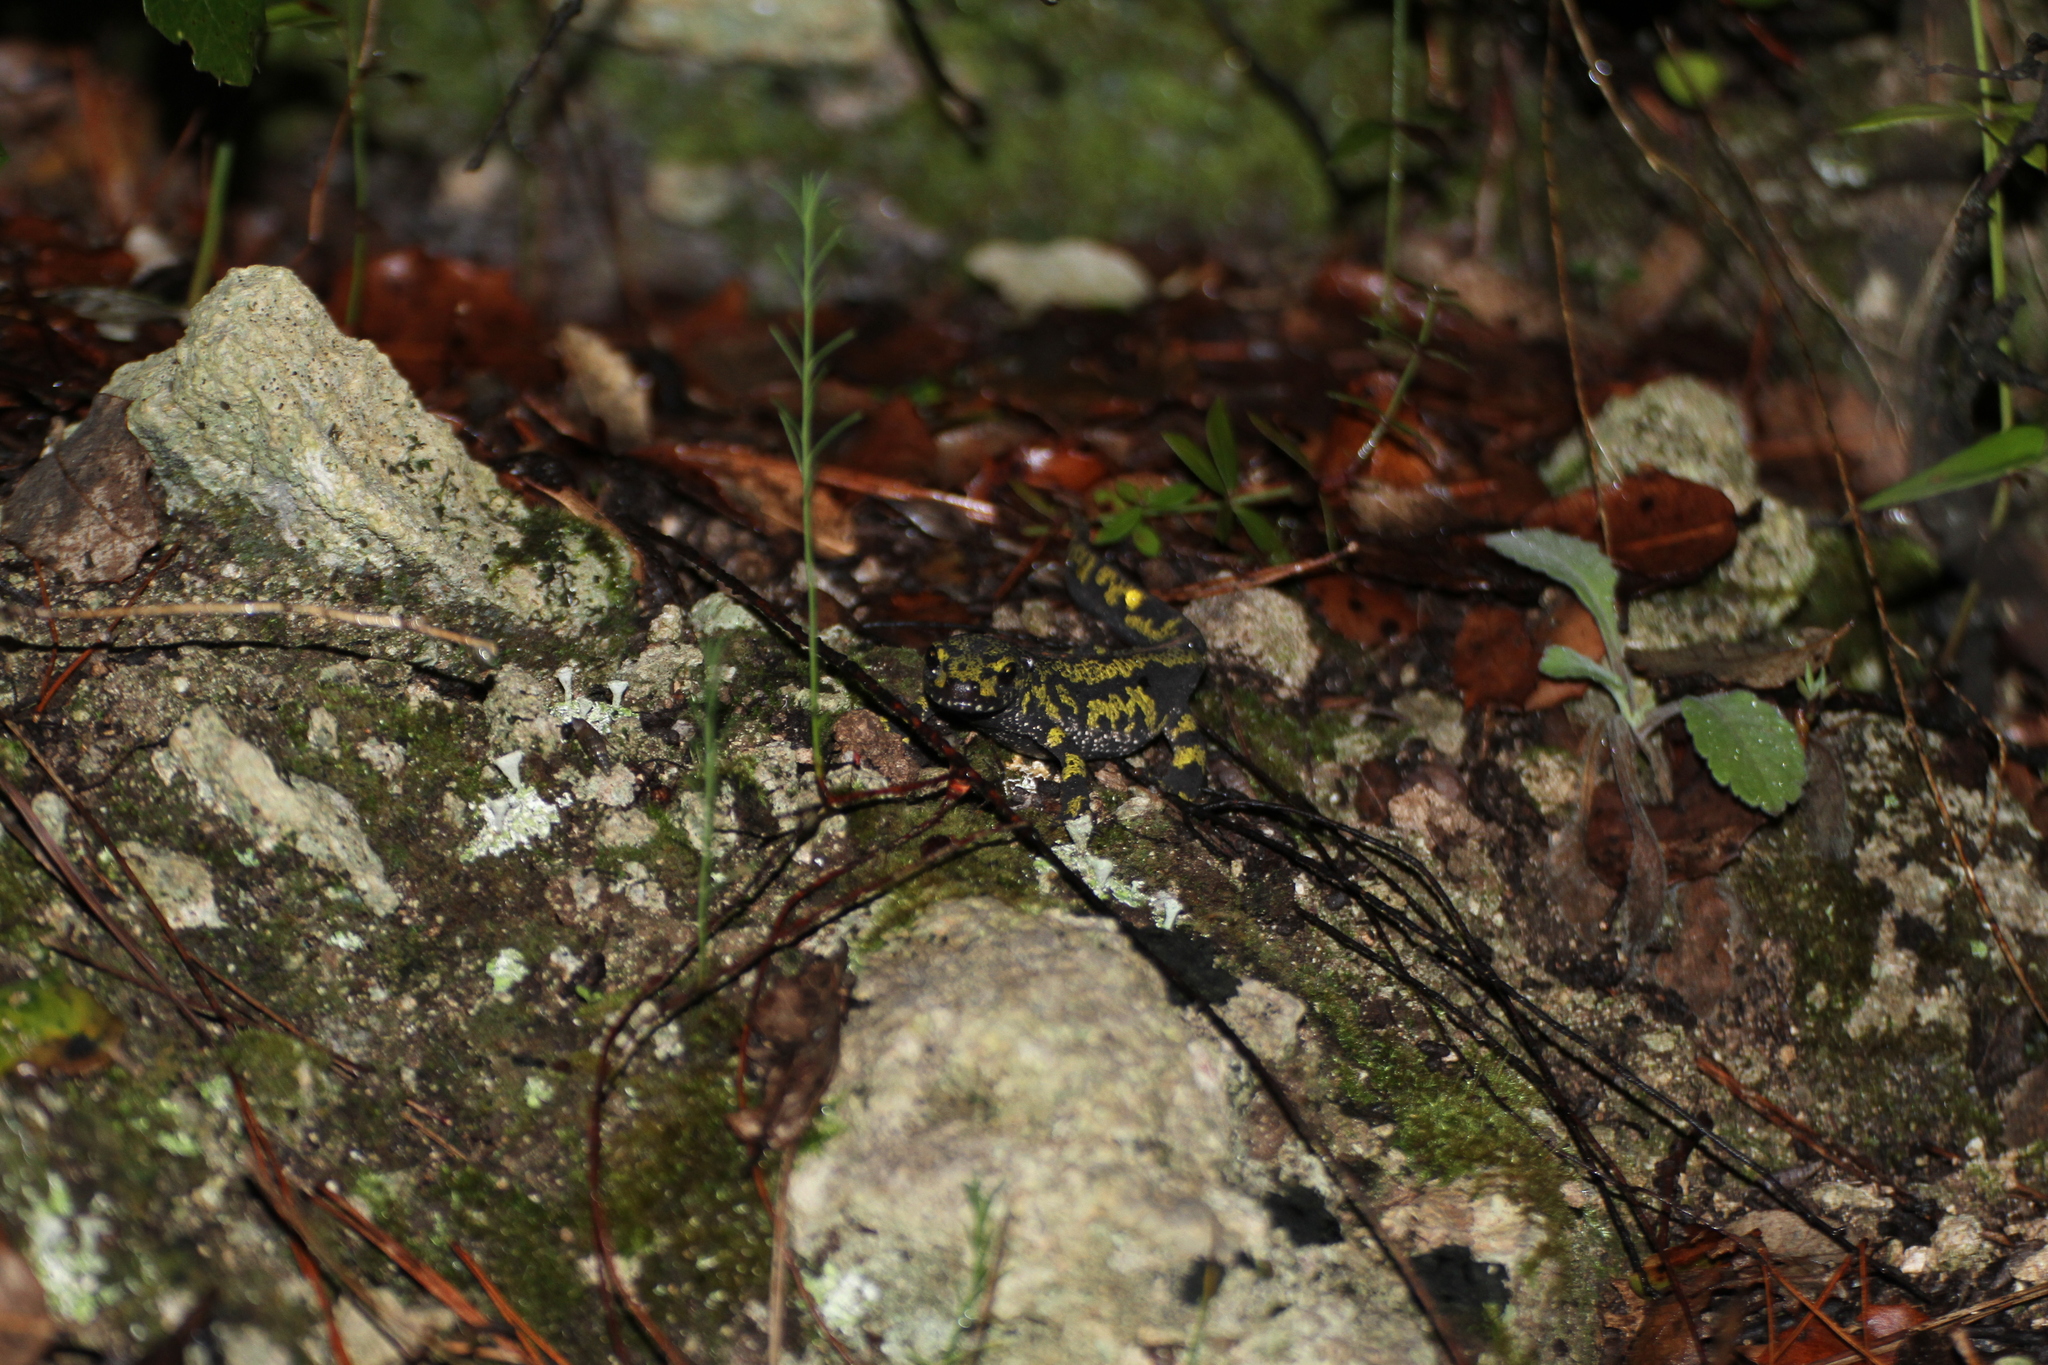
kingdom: Animalia
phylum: Chordata
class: Amphibia
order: Caudata
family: Salamandridae
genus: Triturus
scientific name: Triturus marmoratus
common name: Marbled newt
